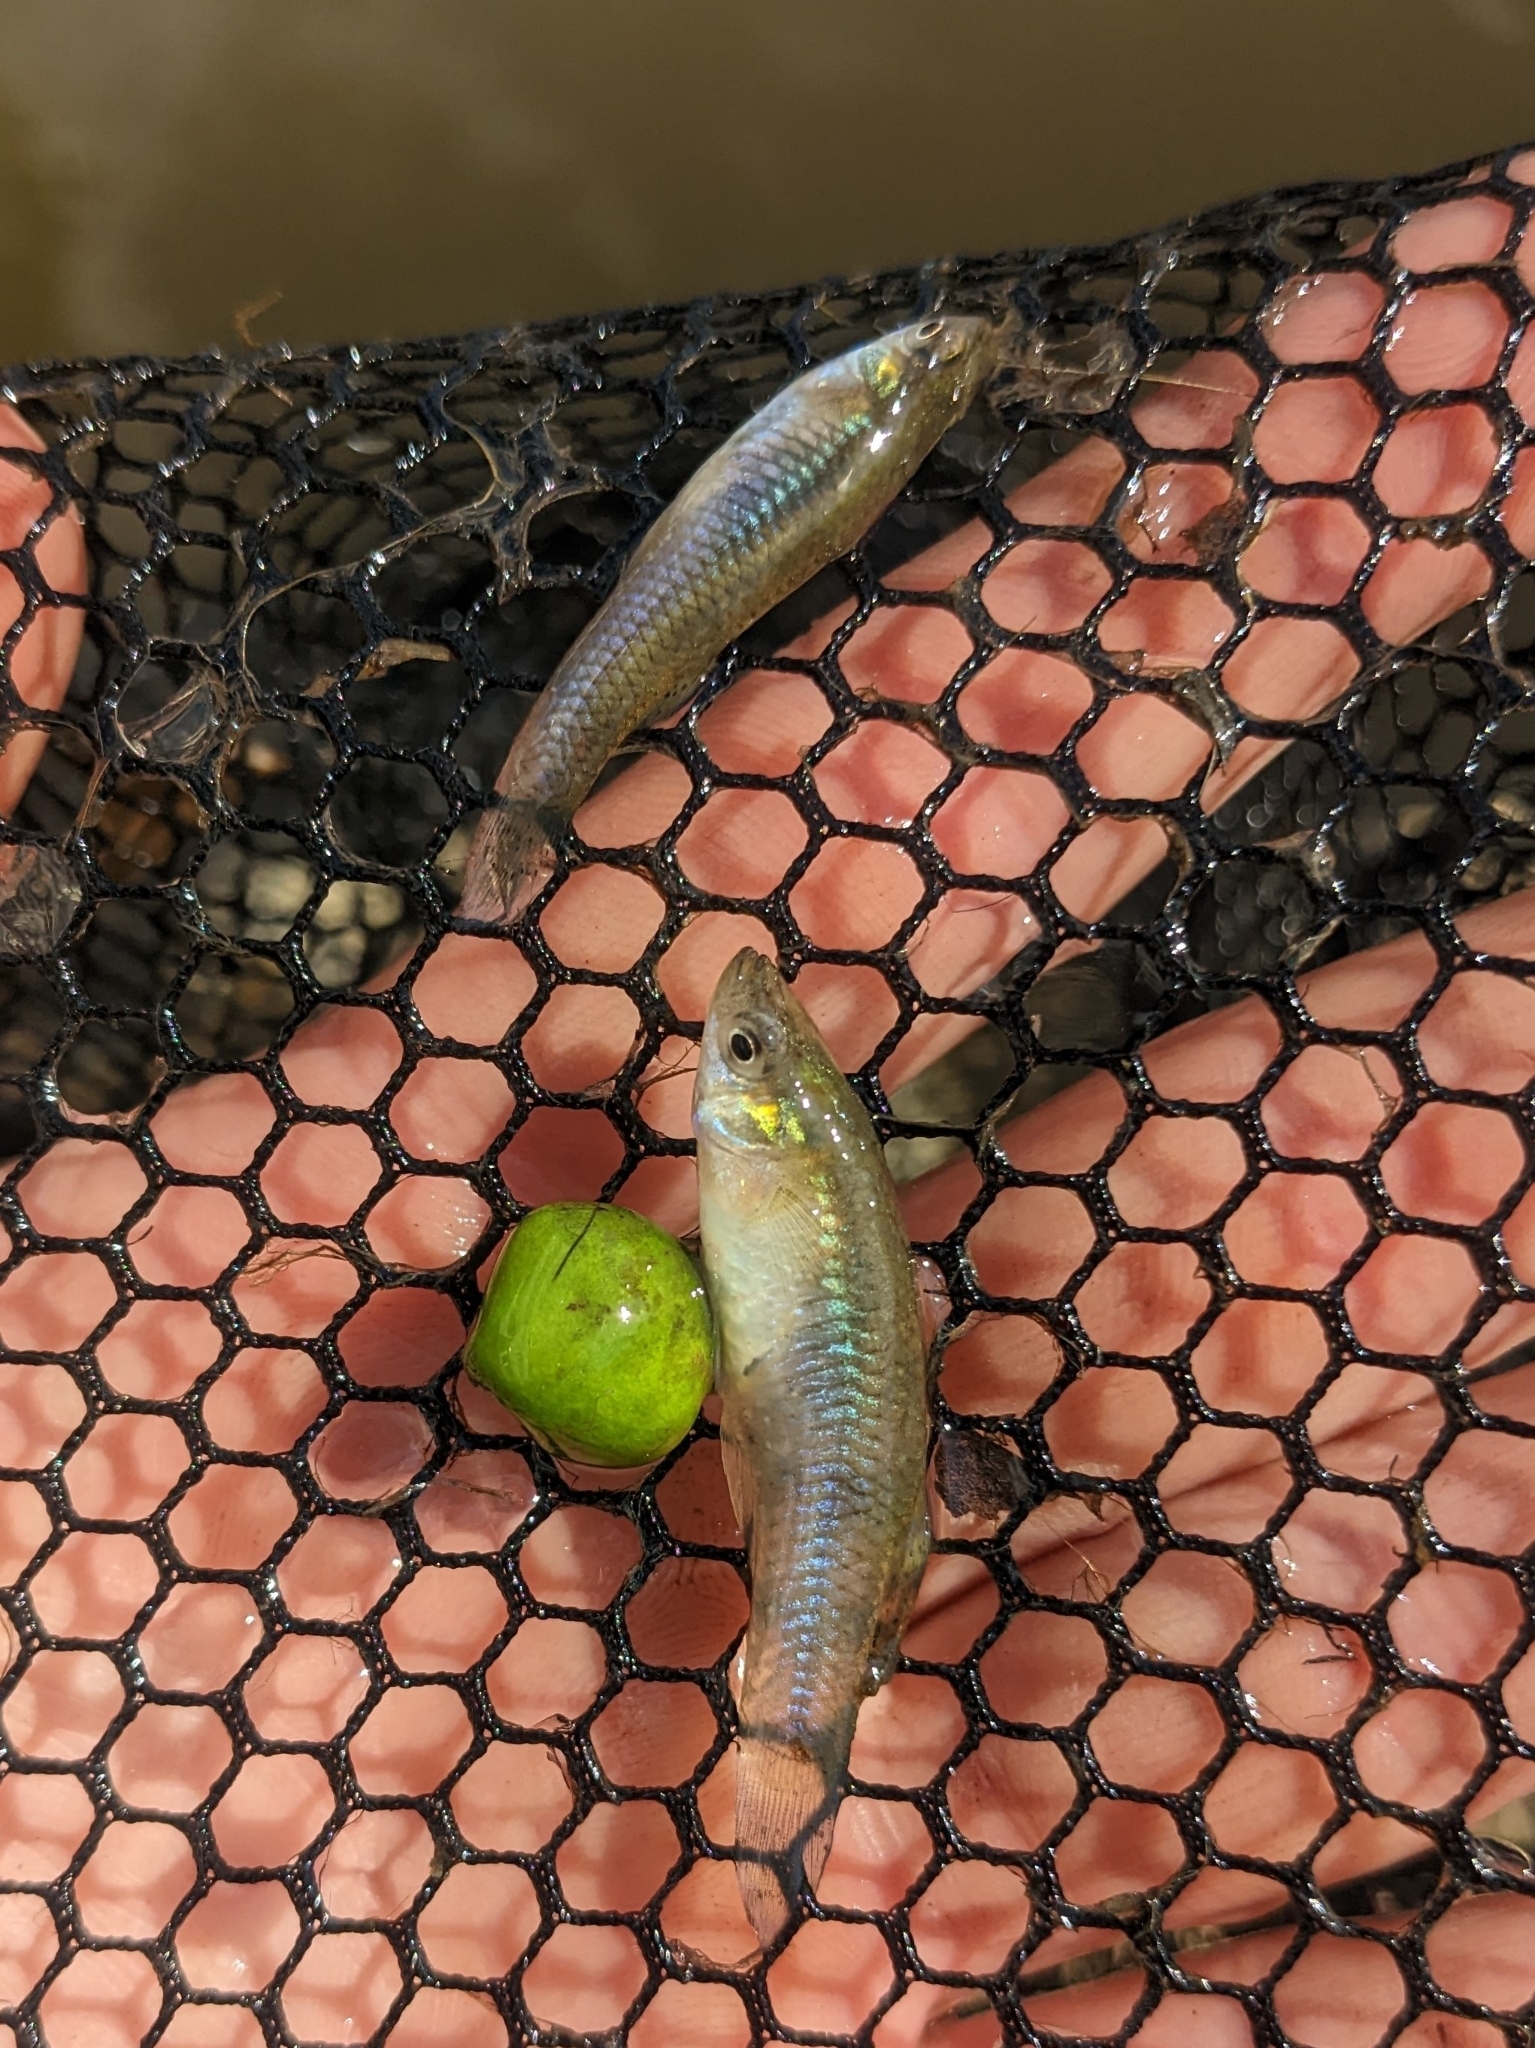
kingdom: Animalia
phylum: Chordata
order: Cyprinodontiformes
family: Poeciliidae
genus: Gambusia
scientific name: Gambusia holbrooki
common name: Eastern mosquitofish
